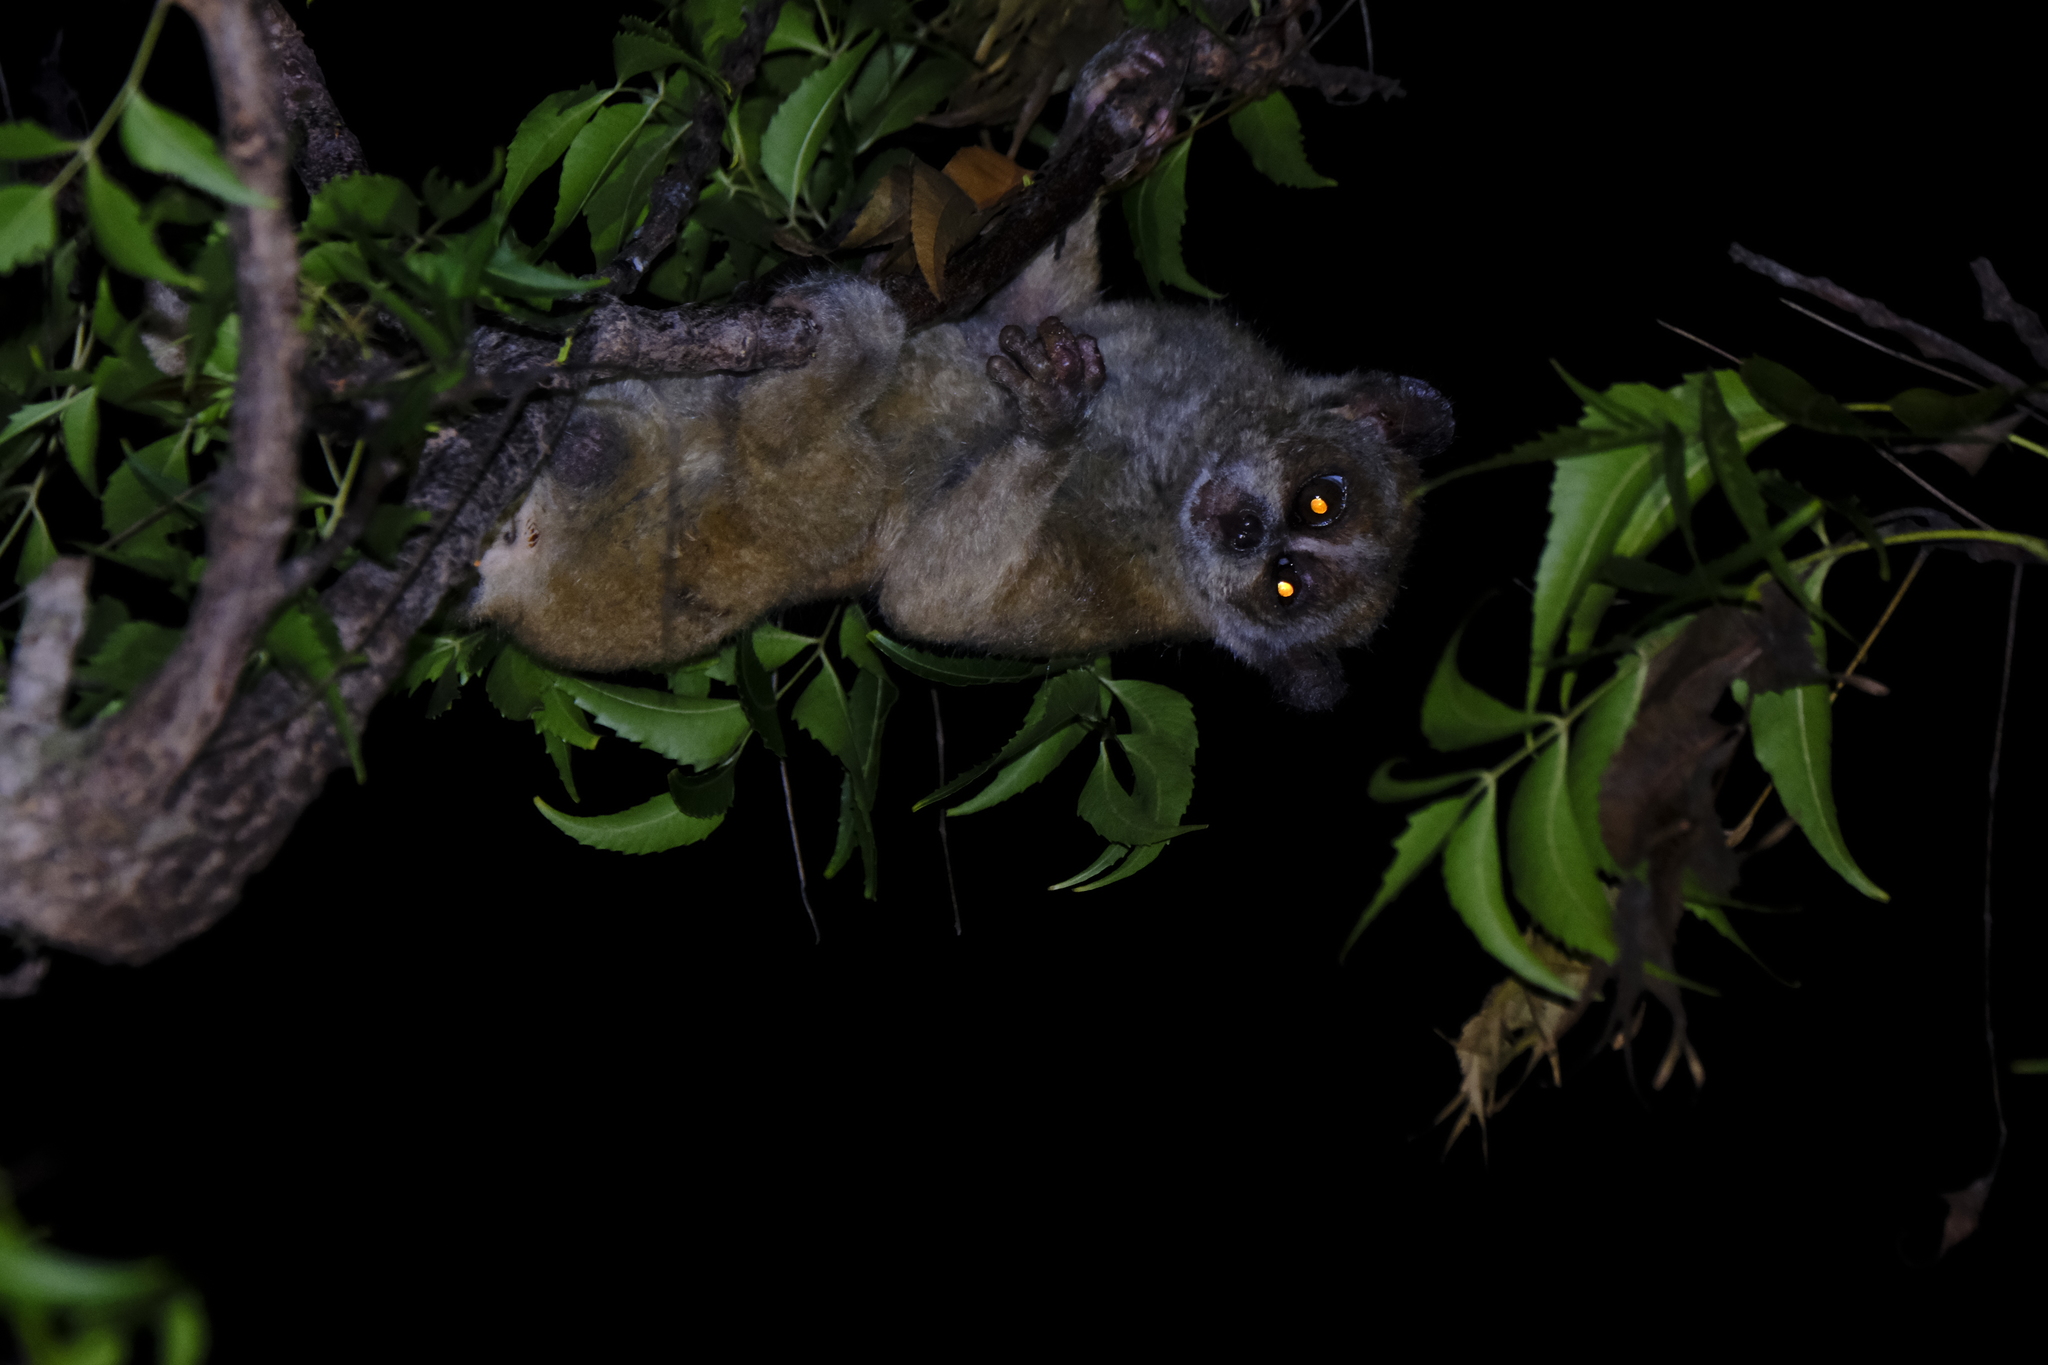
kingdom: Animalia
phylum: Chordata
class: Mammalia
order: Primates
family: Lorisidae
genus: Xanthonycticebus
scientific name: Xanthonycticebus
